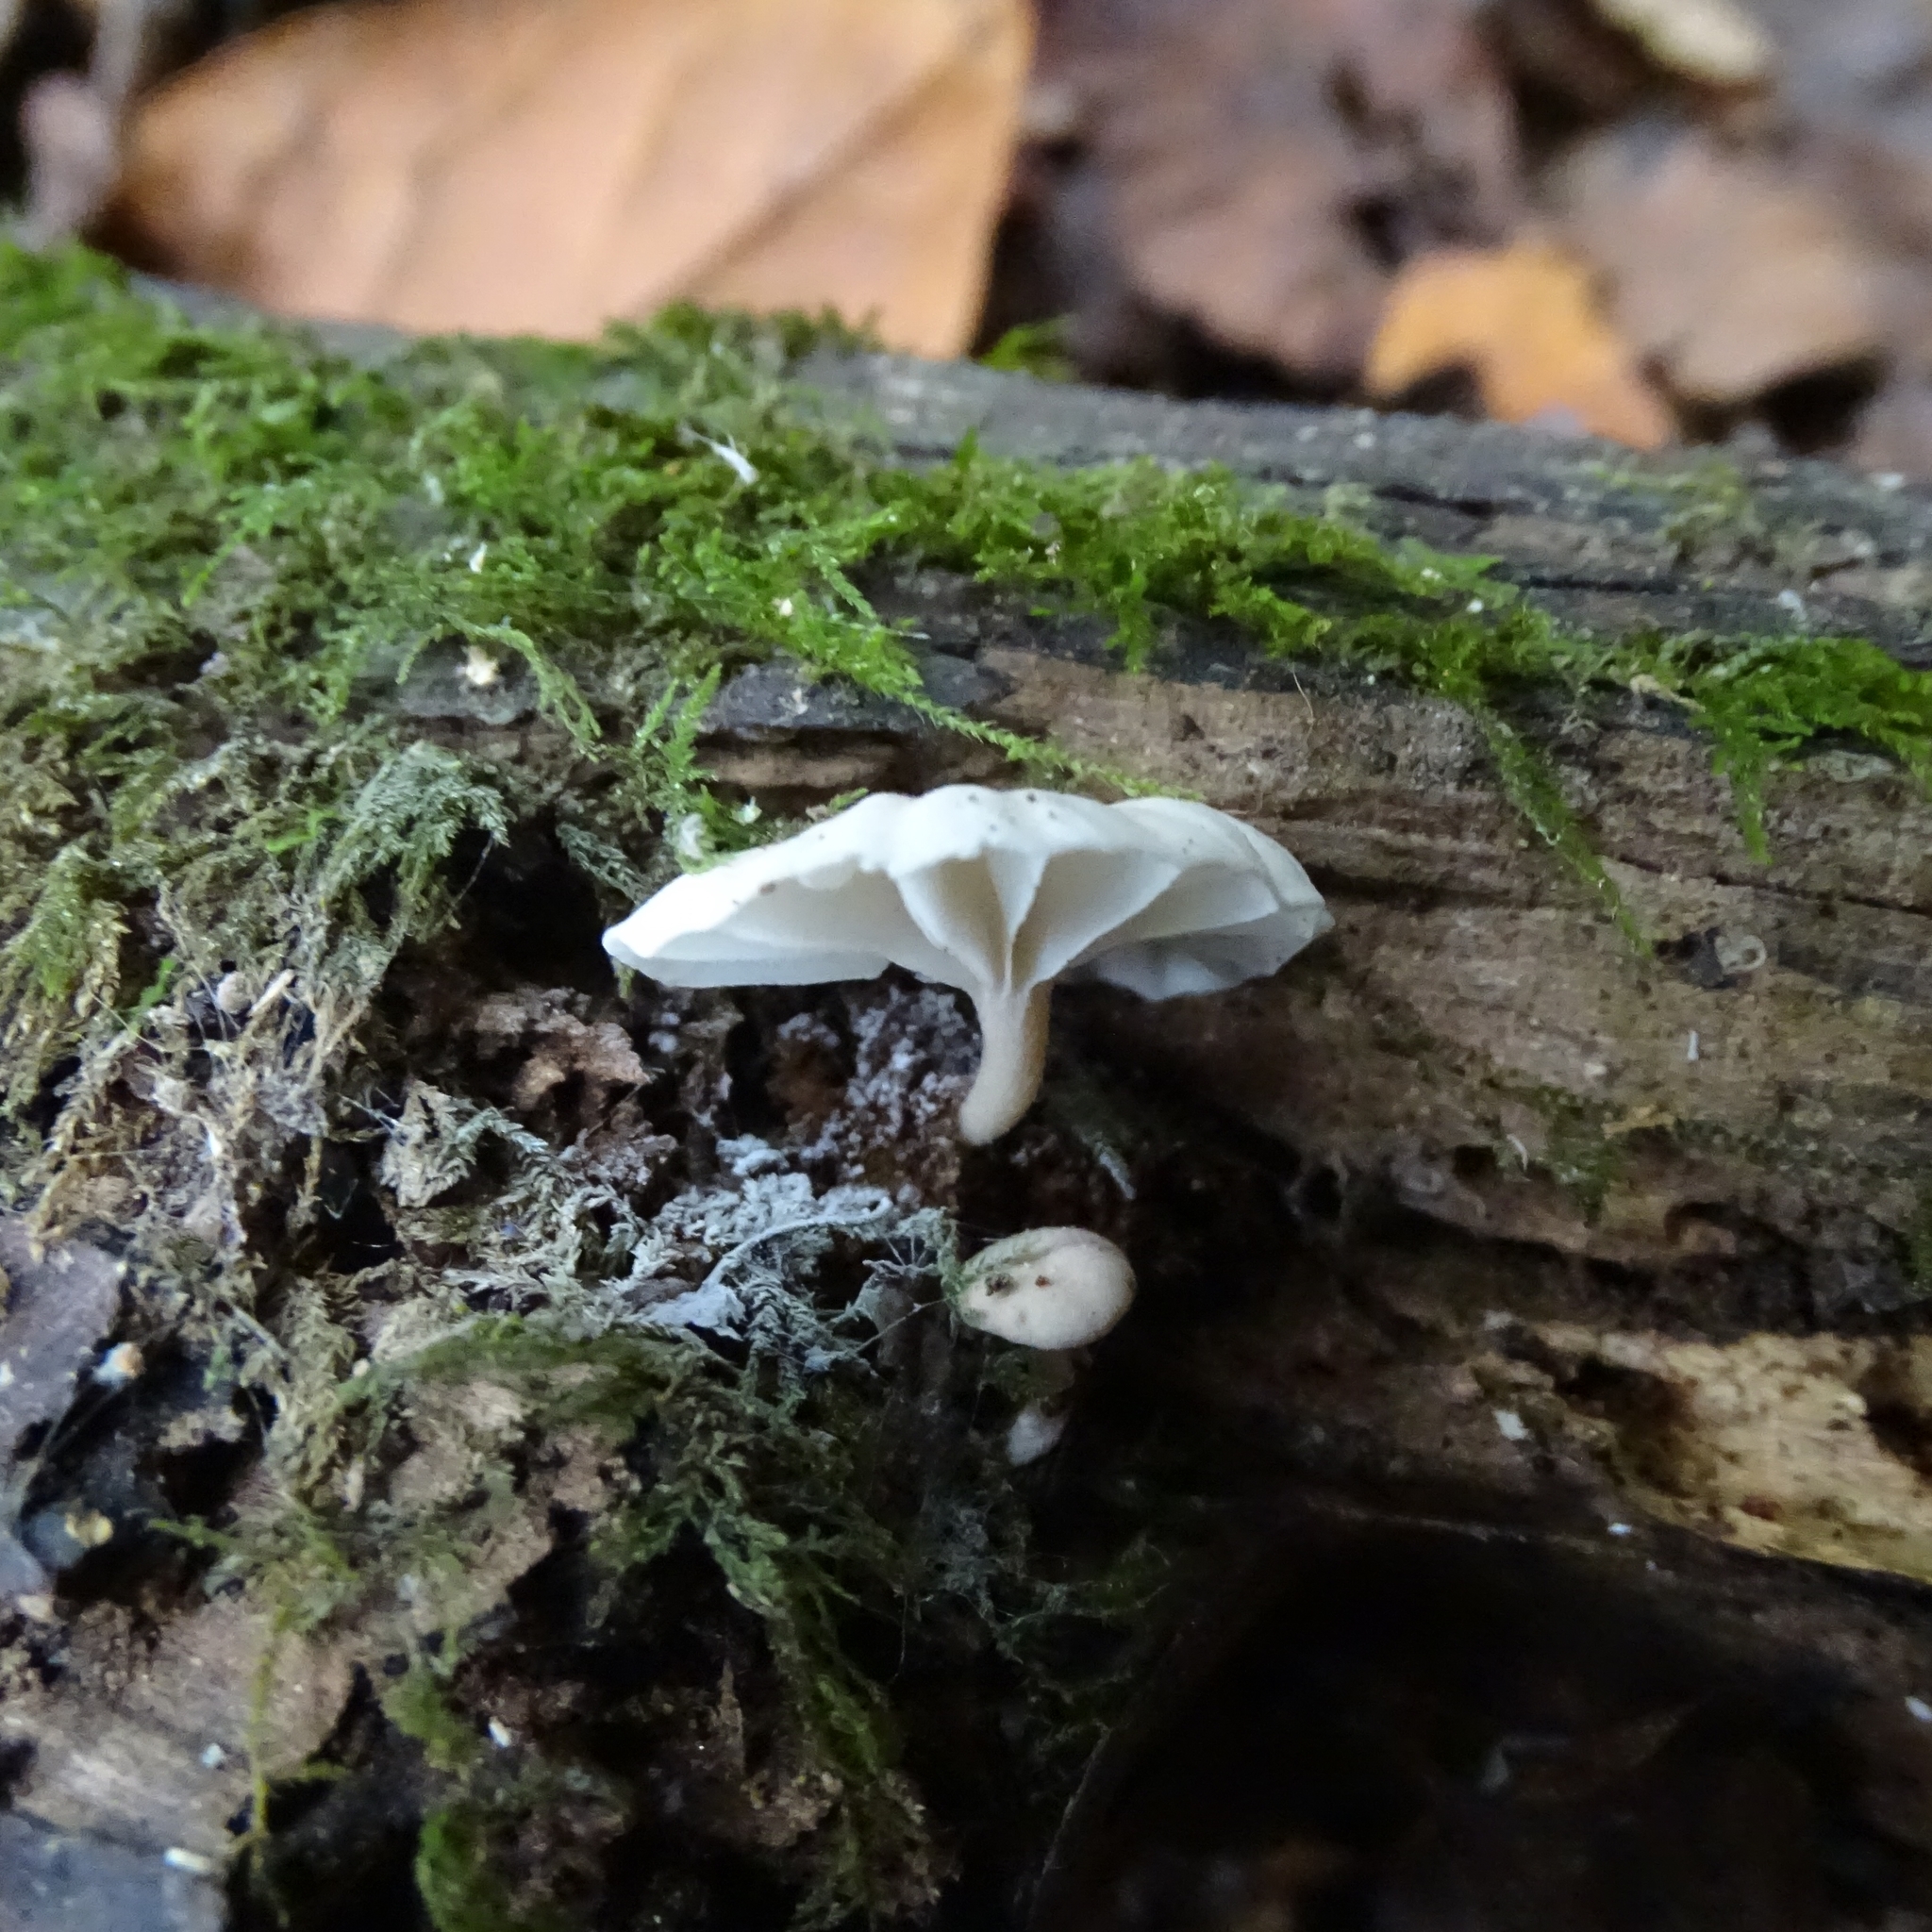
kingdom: Fungi
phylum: Basidiomycota
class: Agaricomycetes
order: Agaricales
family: Omphalotaceae
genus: Marasmiellus
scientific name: Marasmiellus alliiodorus
